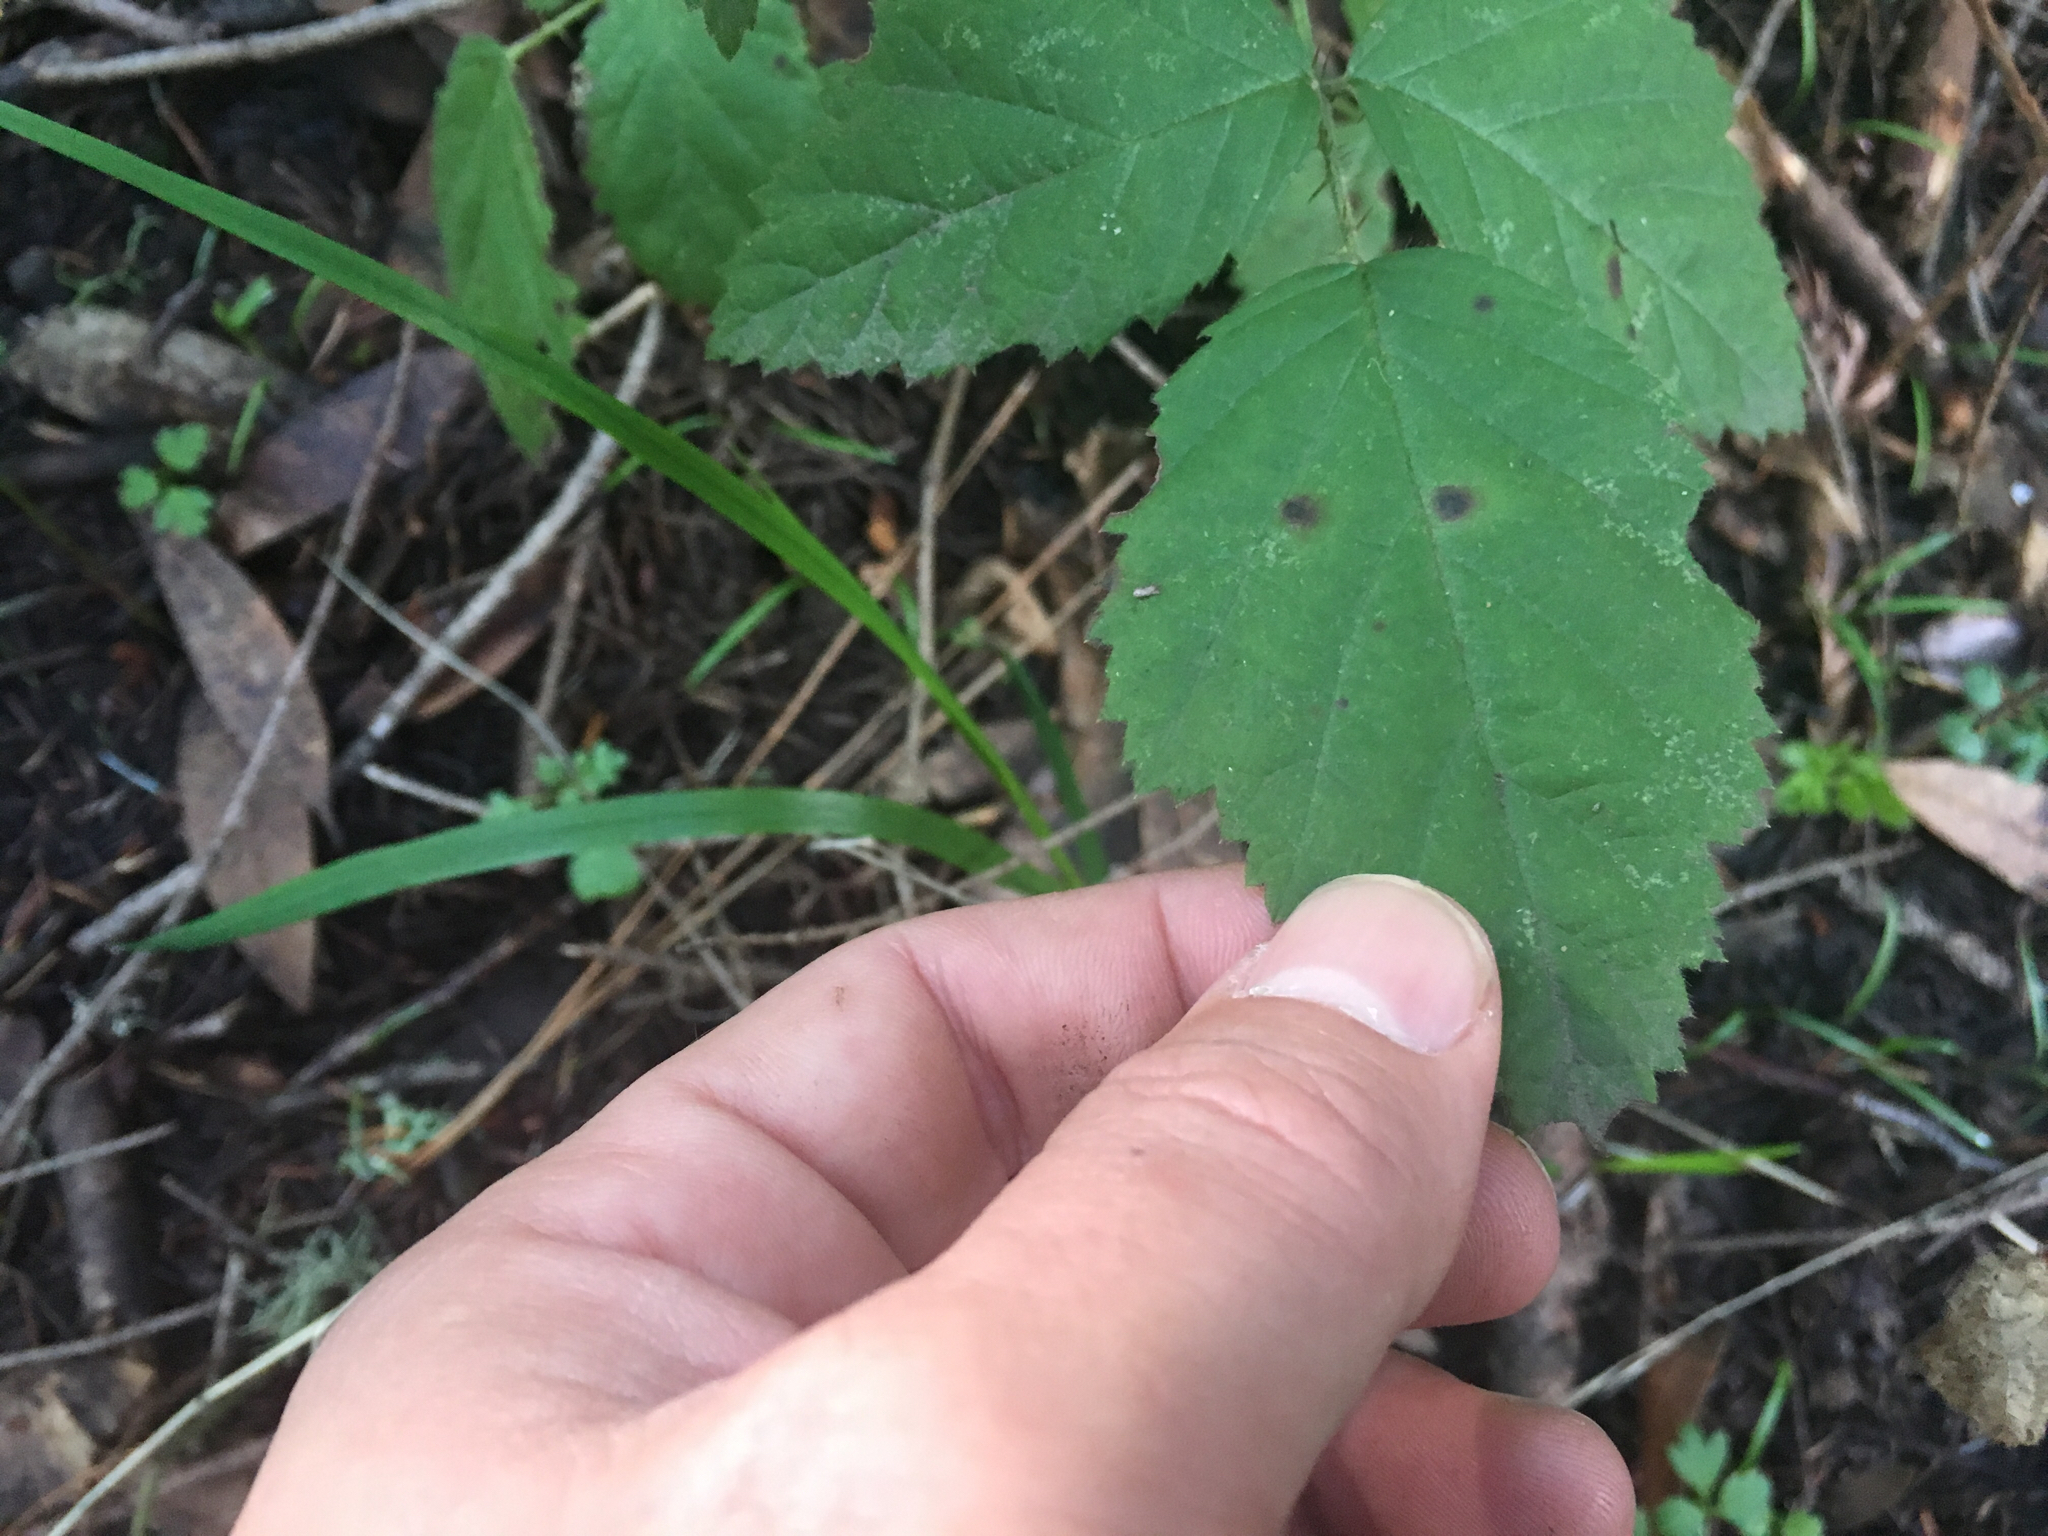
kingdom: Plantae
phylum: Tracheophyta
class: Magnoliopsida
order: Rosales
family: Rosaceae
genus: Rubus
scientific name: Rubus ursinus
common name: Pacific blackberry
